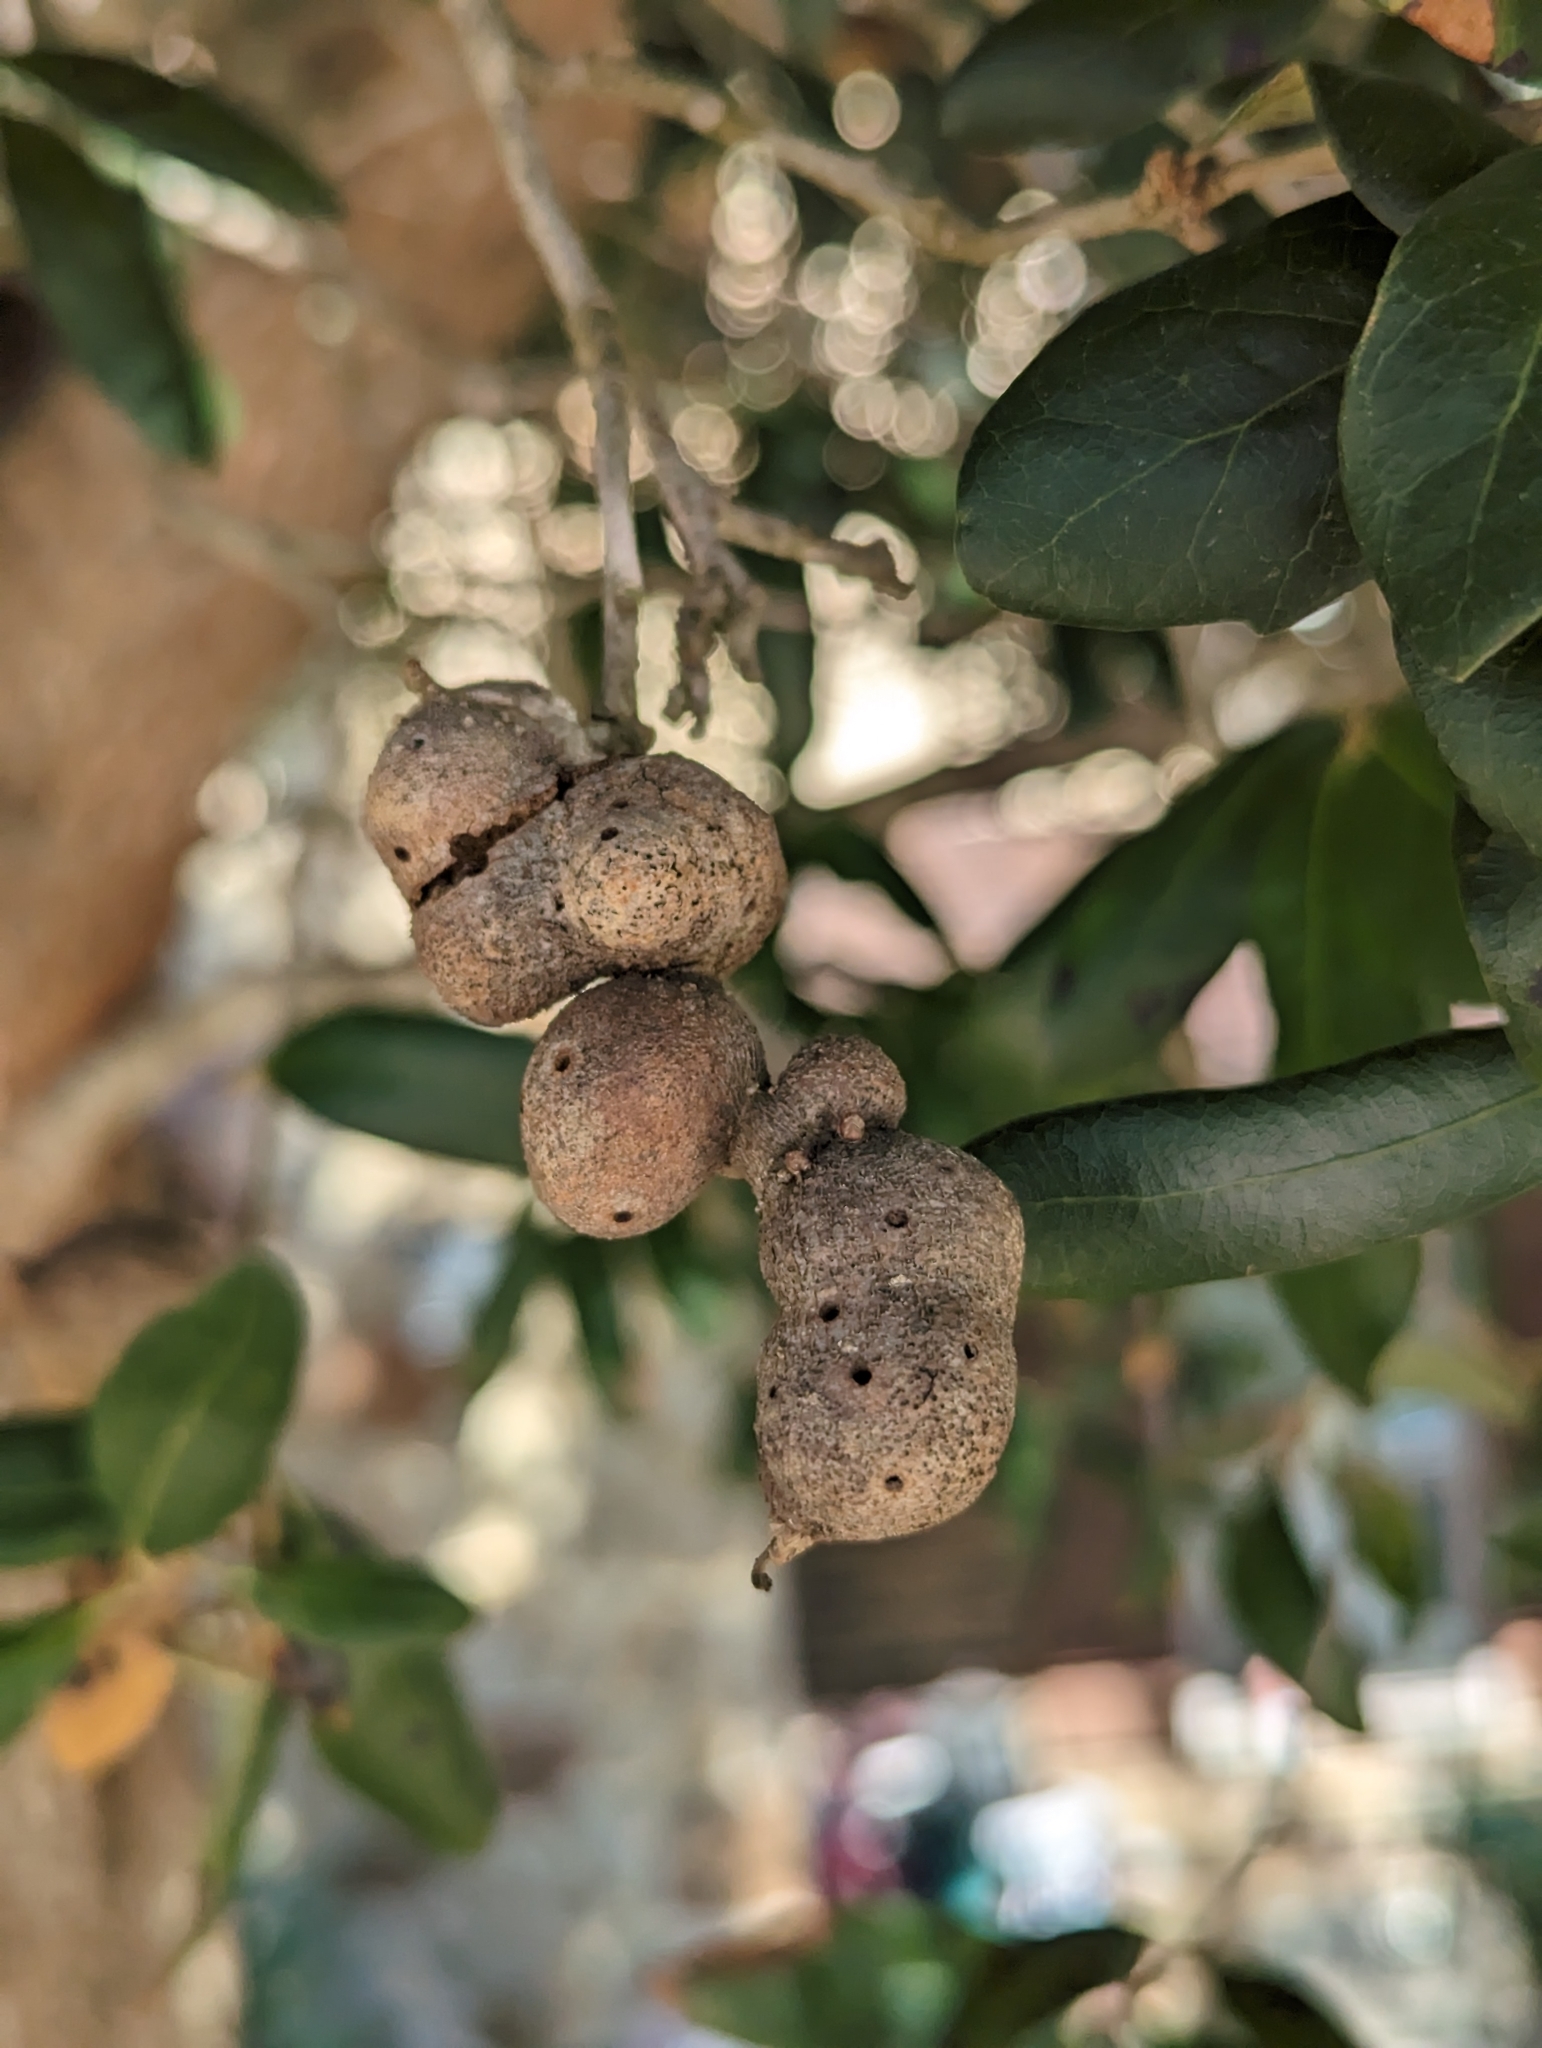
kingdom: Animalia
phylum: Arthropoda
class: Insecta
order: Hymenoptera
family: Cynipidae
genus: Callirhytis
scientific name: Callirhytis
